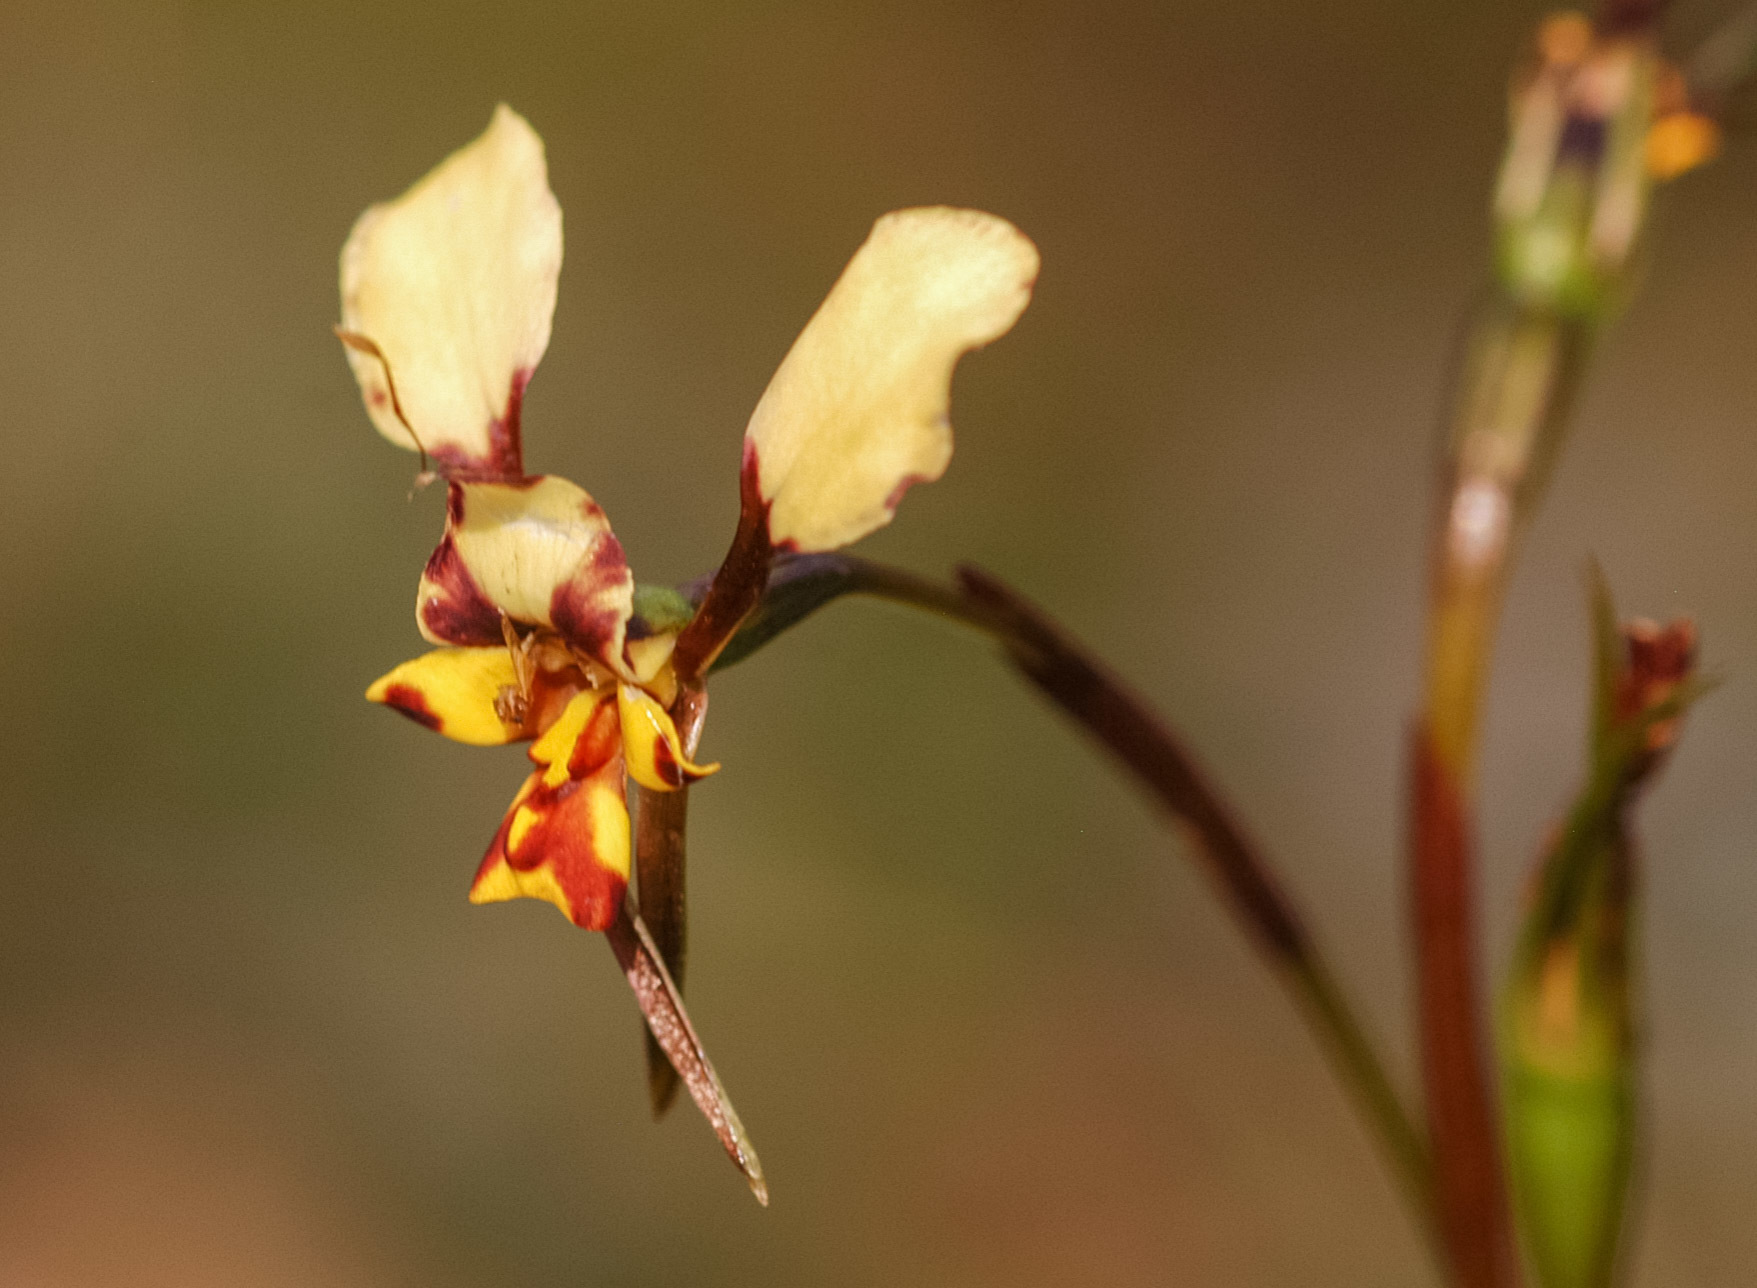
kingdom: Plantae
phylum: Tracheophyta
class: Liliopsida
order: Asparagales
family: Orchidaceae
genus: Diuris
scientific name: Diuris pardina
